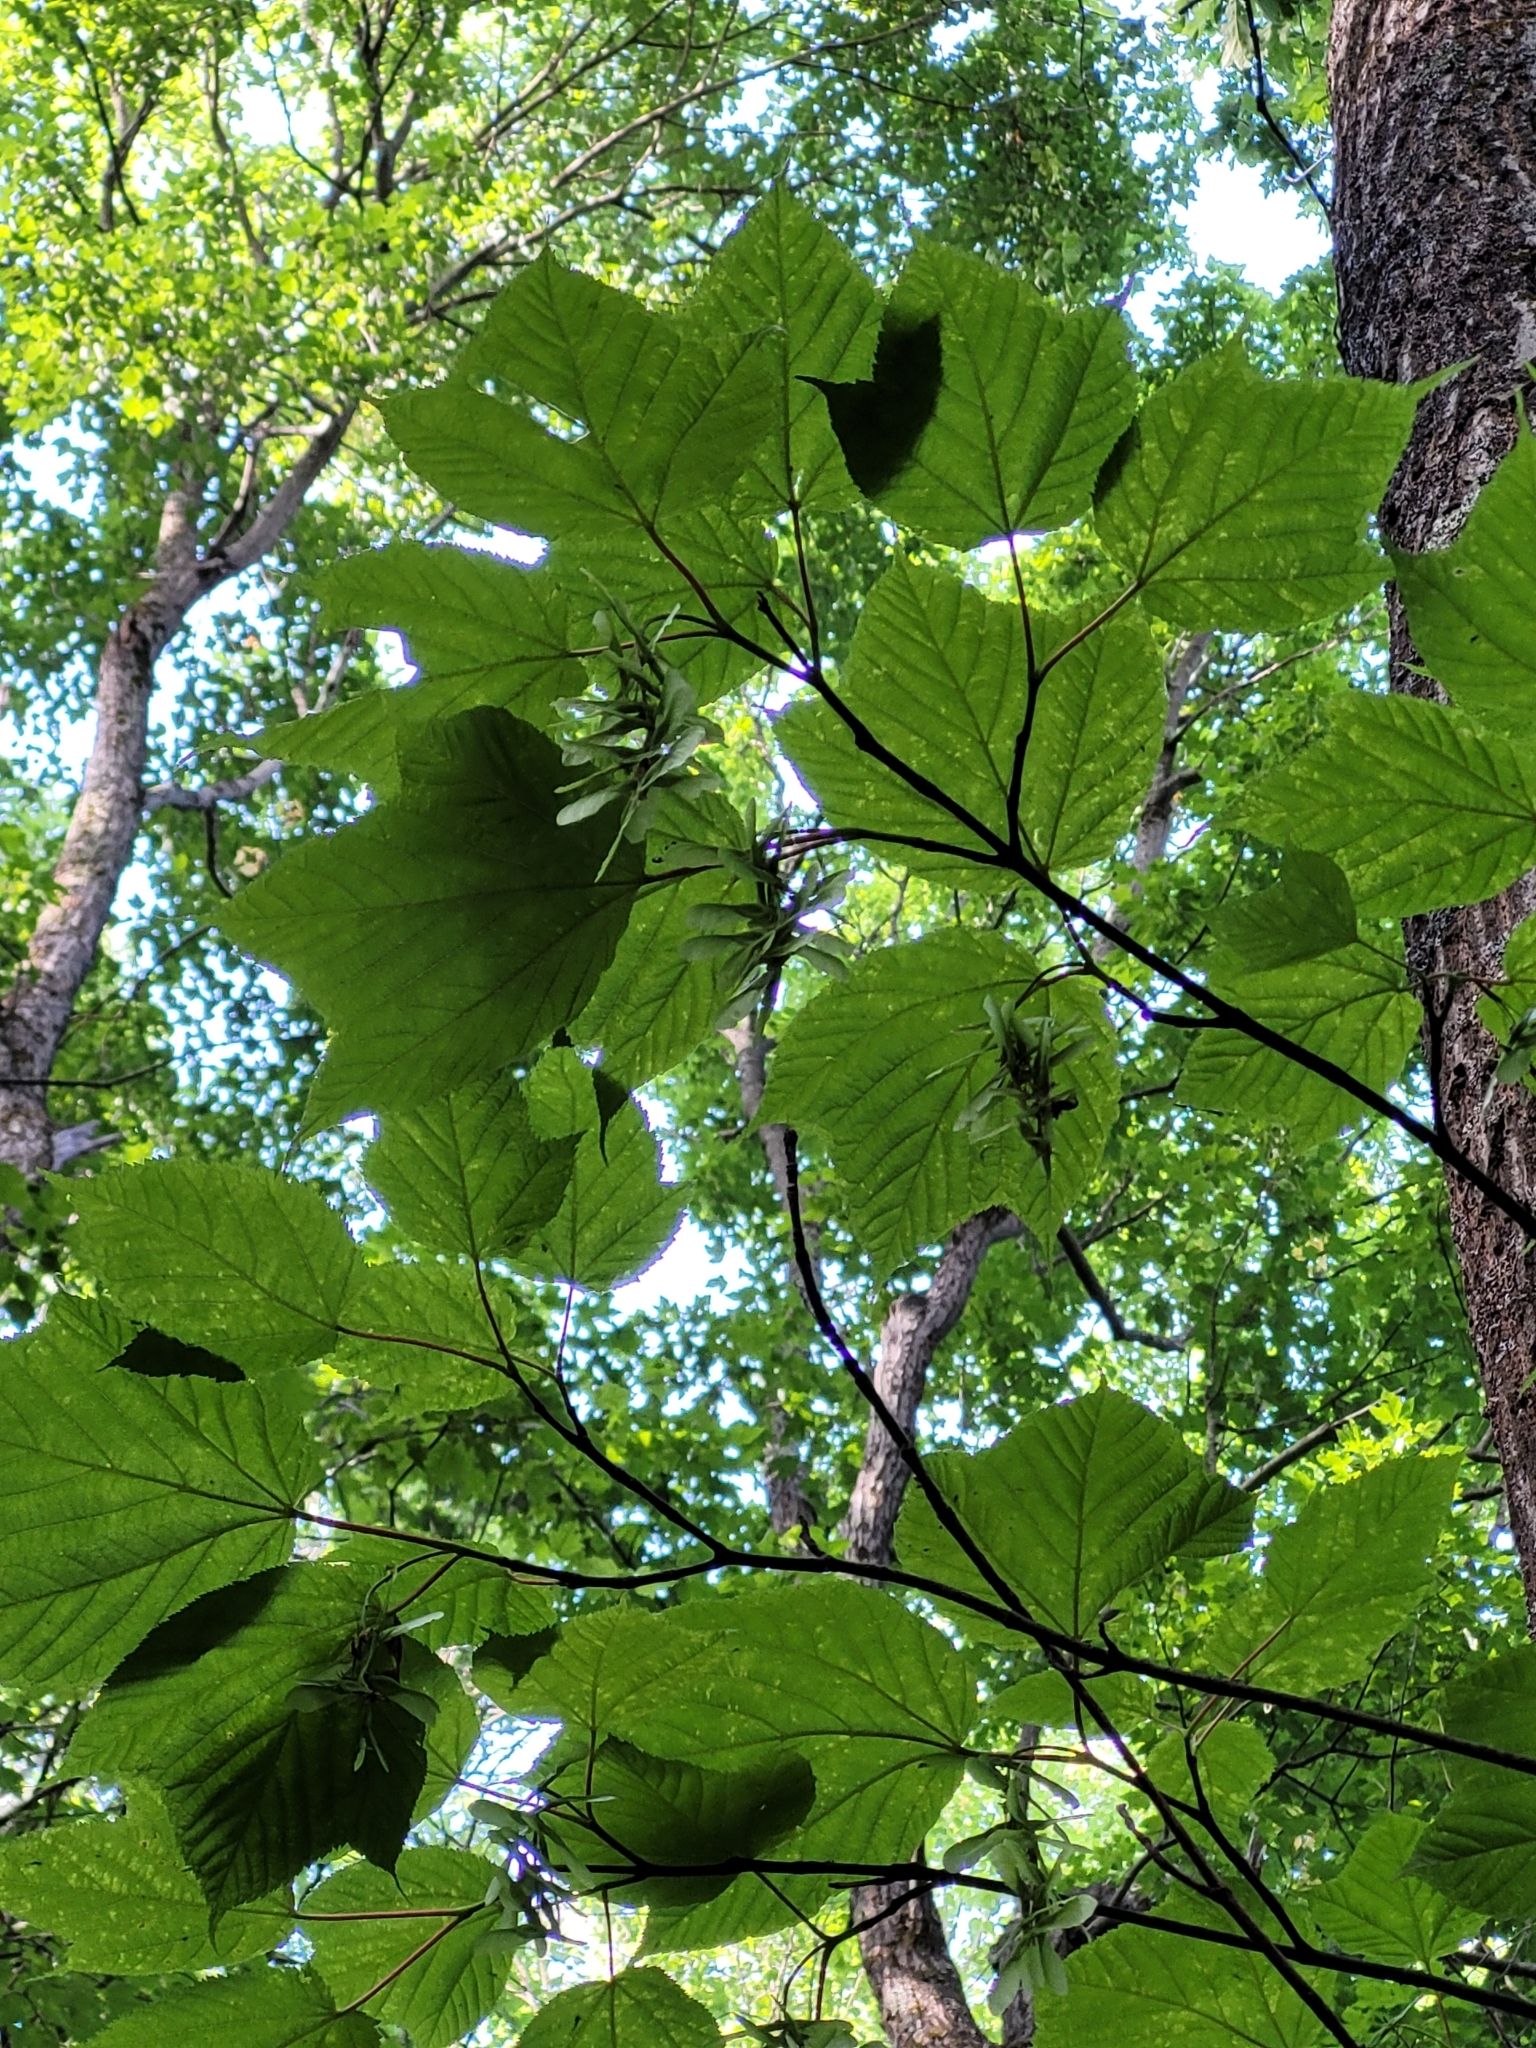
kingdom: Plantae
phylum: Tracheophyta
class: Magnoliopsida
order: Sapindales
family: Sapindaceae
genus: Acer
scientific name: Acer pensylvanicum
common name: Moosewood
